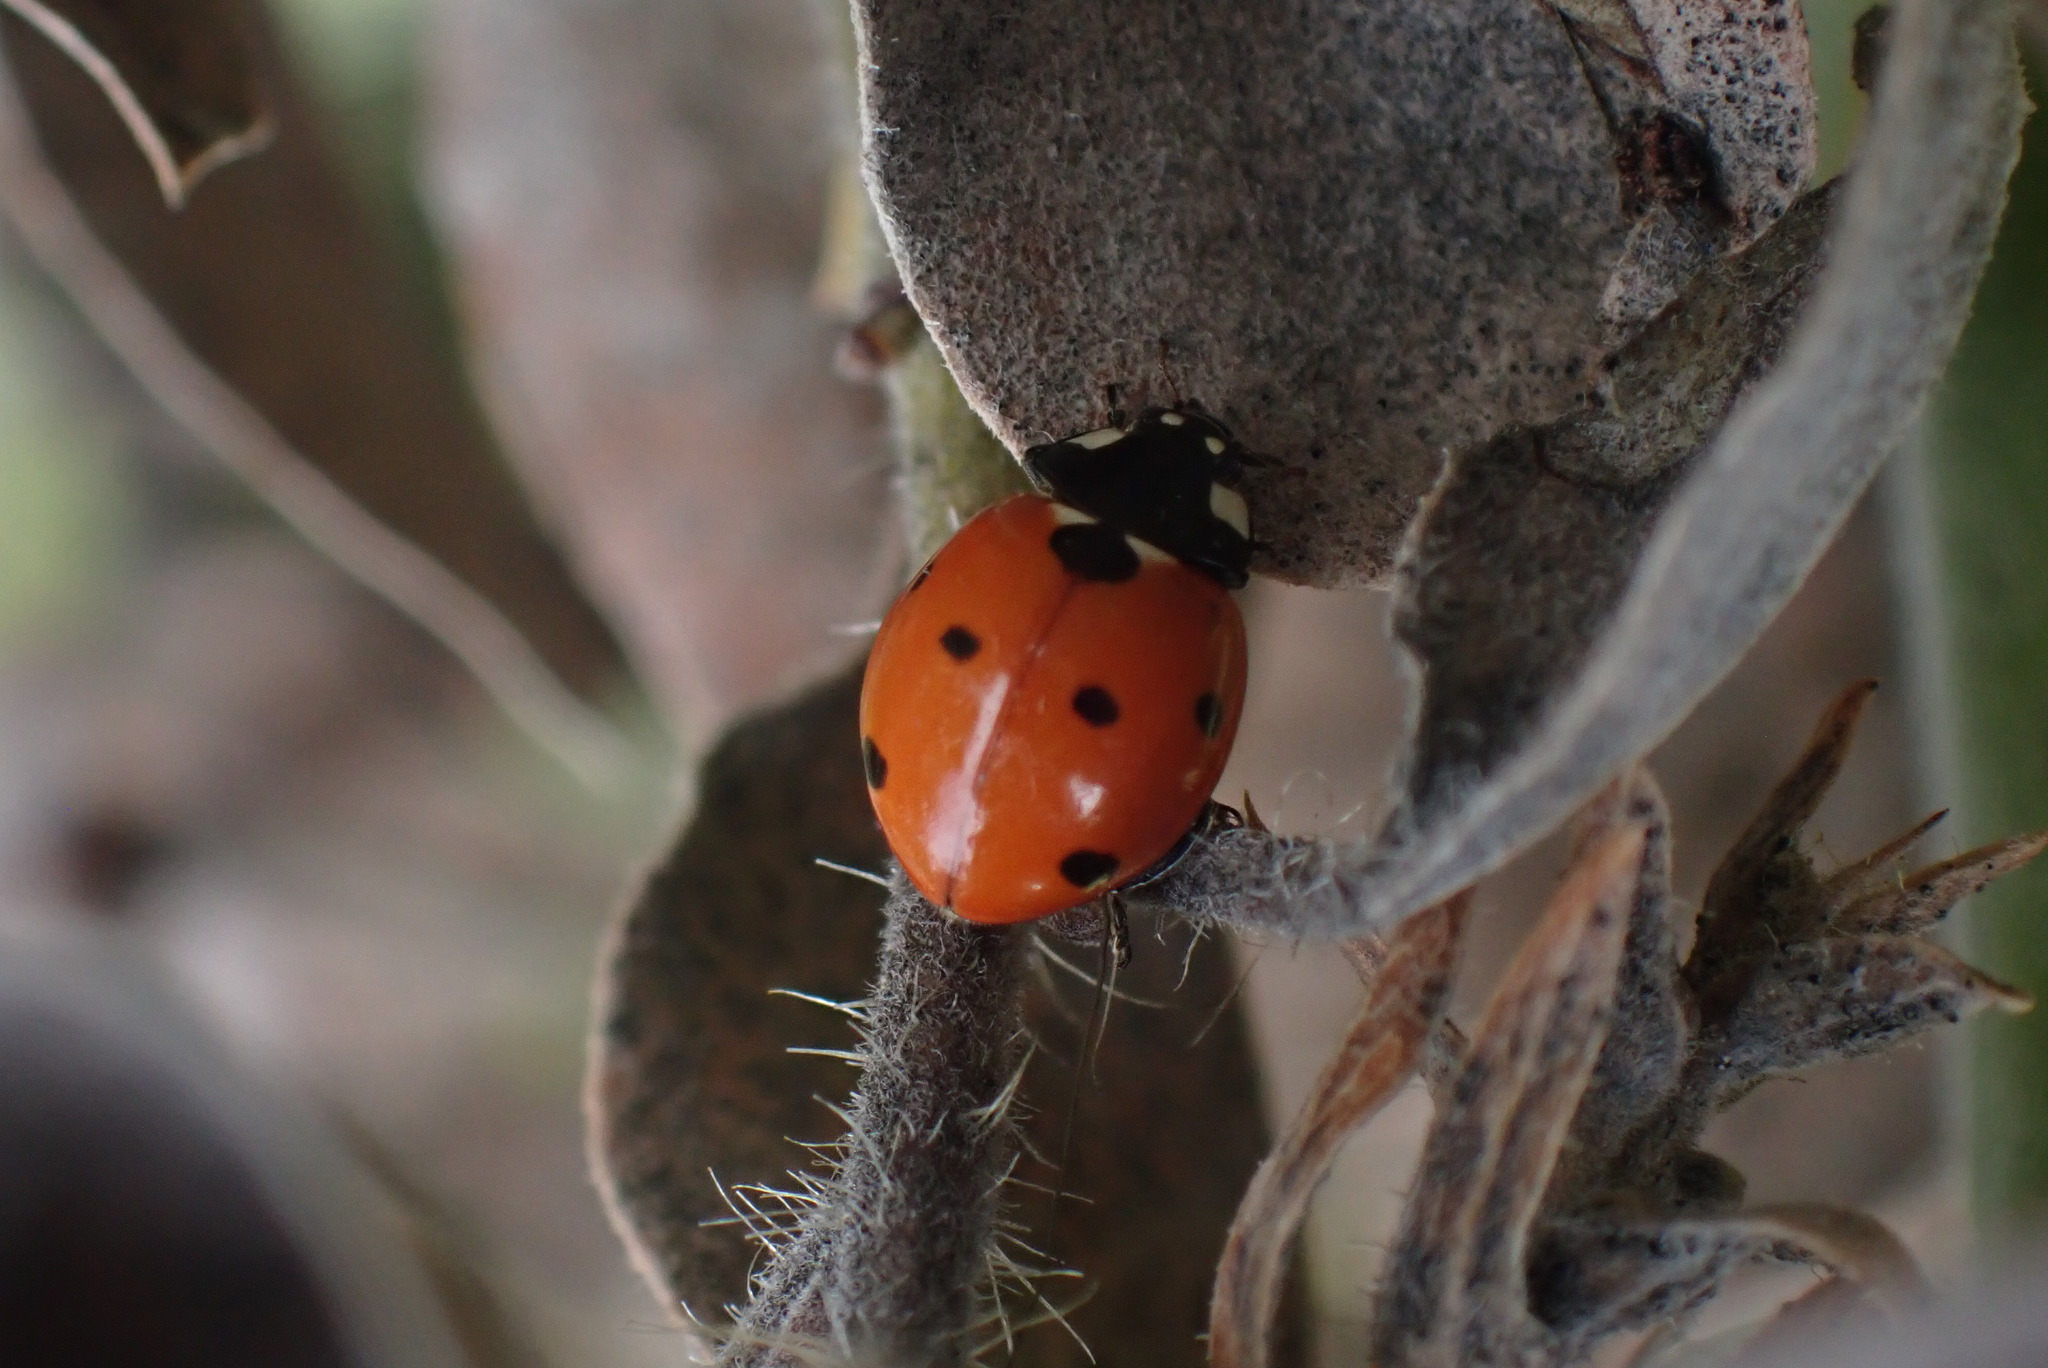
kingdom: Animalia
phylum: Arthropoda
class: Insecta
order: Coleoptera
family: Coccinellidae
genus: Coccinella
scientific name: Coccinella septempunctata
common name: Sevenspotted lady beetle
